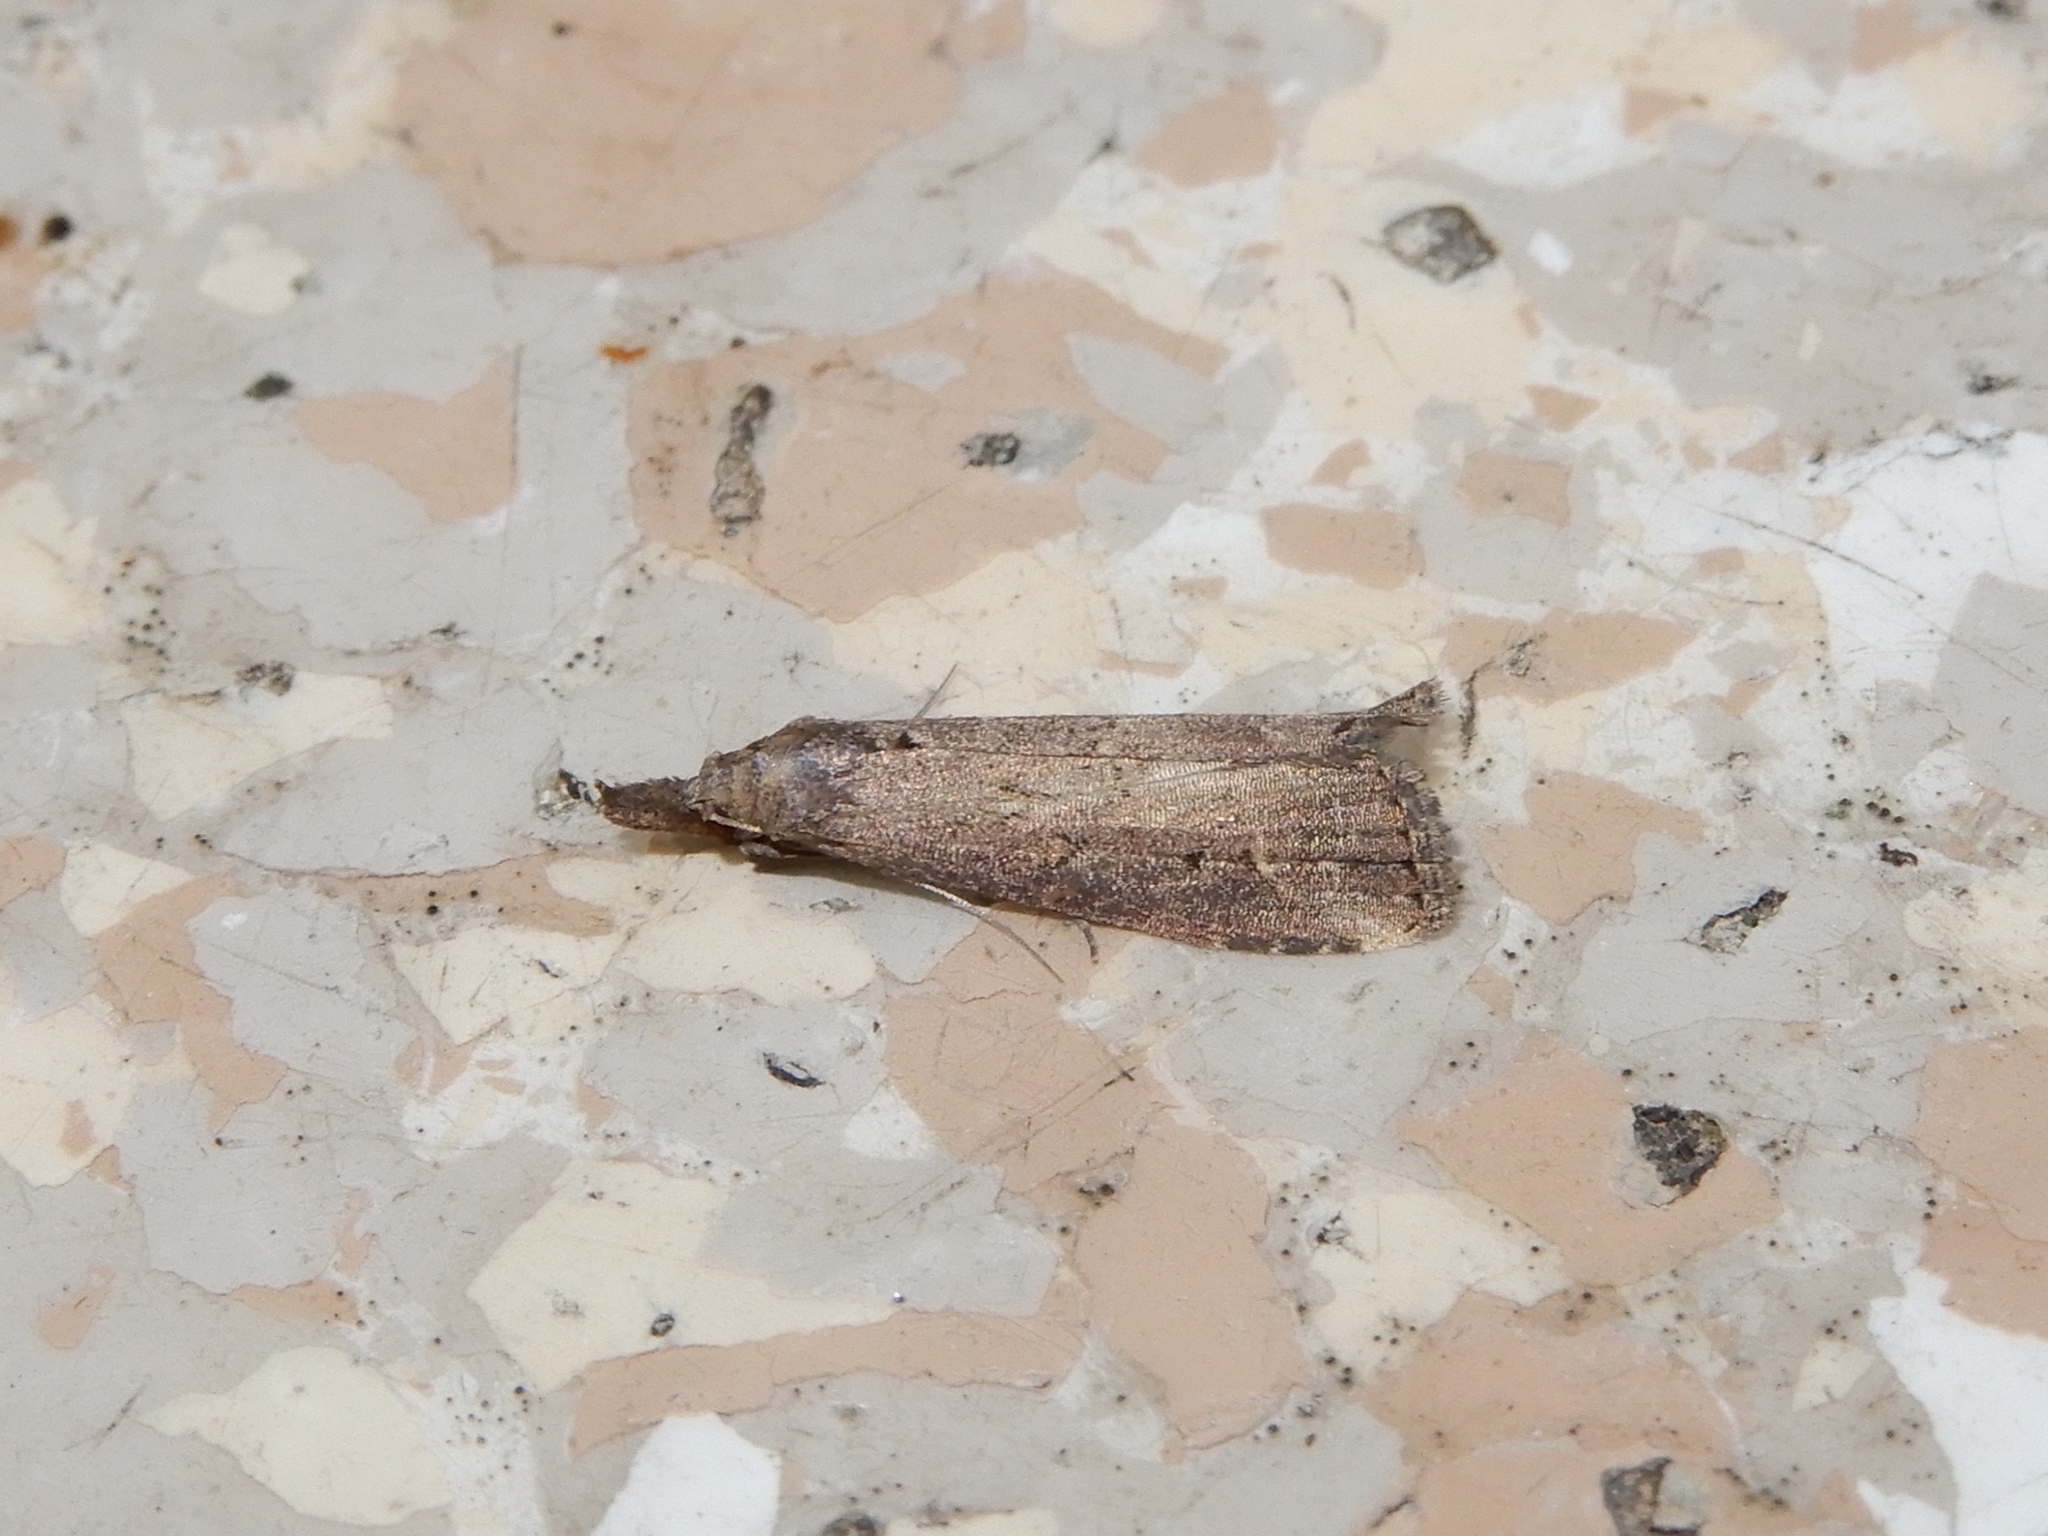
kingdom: Animalia
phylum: Arthropoda
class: Insecta
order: Lepidoptera
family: Erebidae
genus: Schrankia
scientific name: Schrankia costaestrigalis
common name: Pinion-streaked snout
